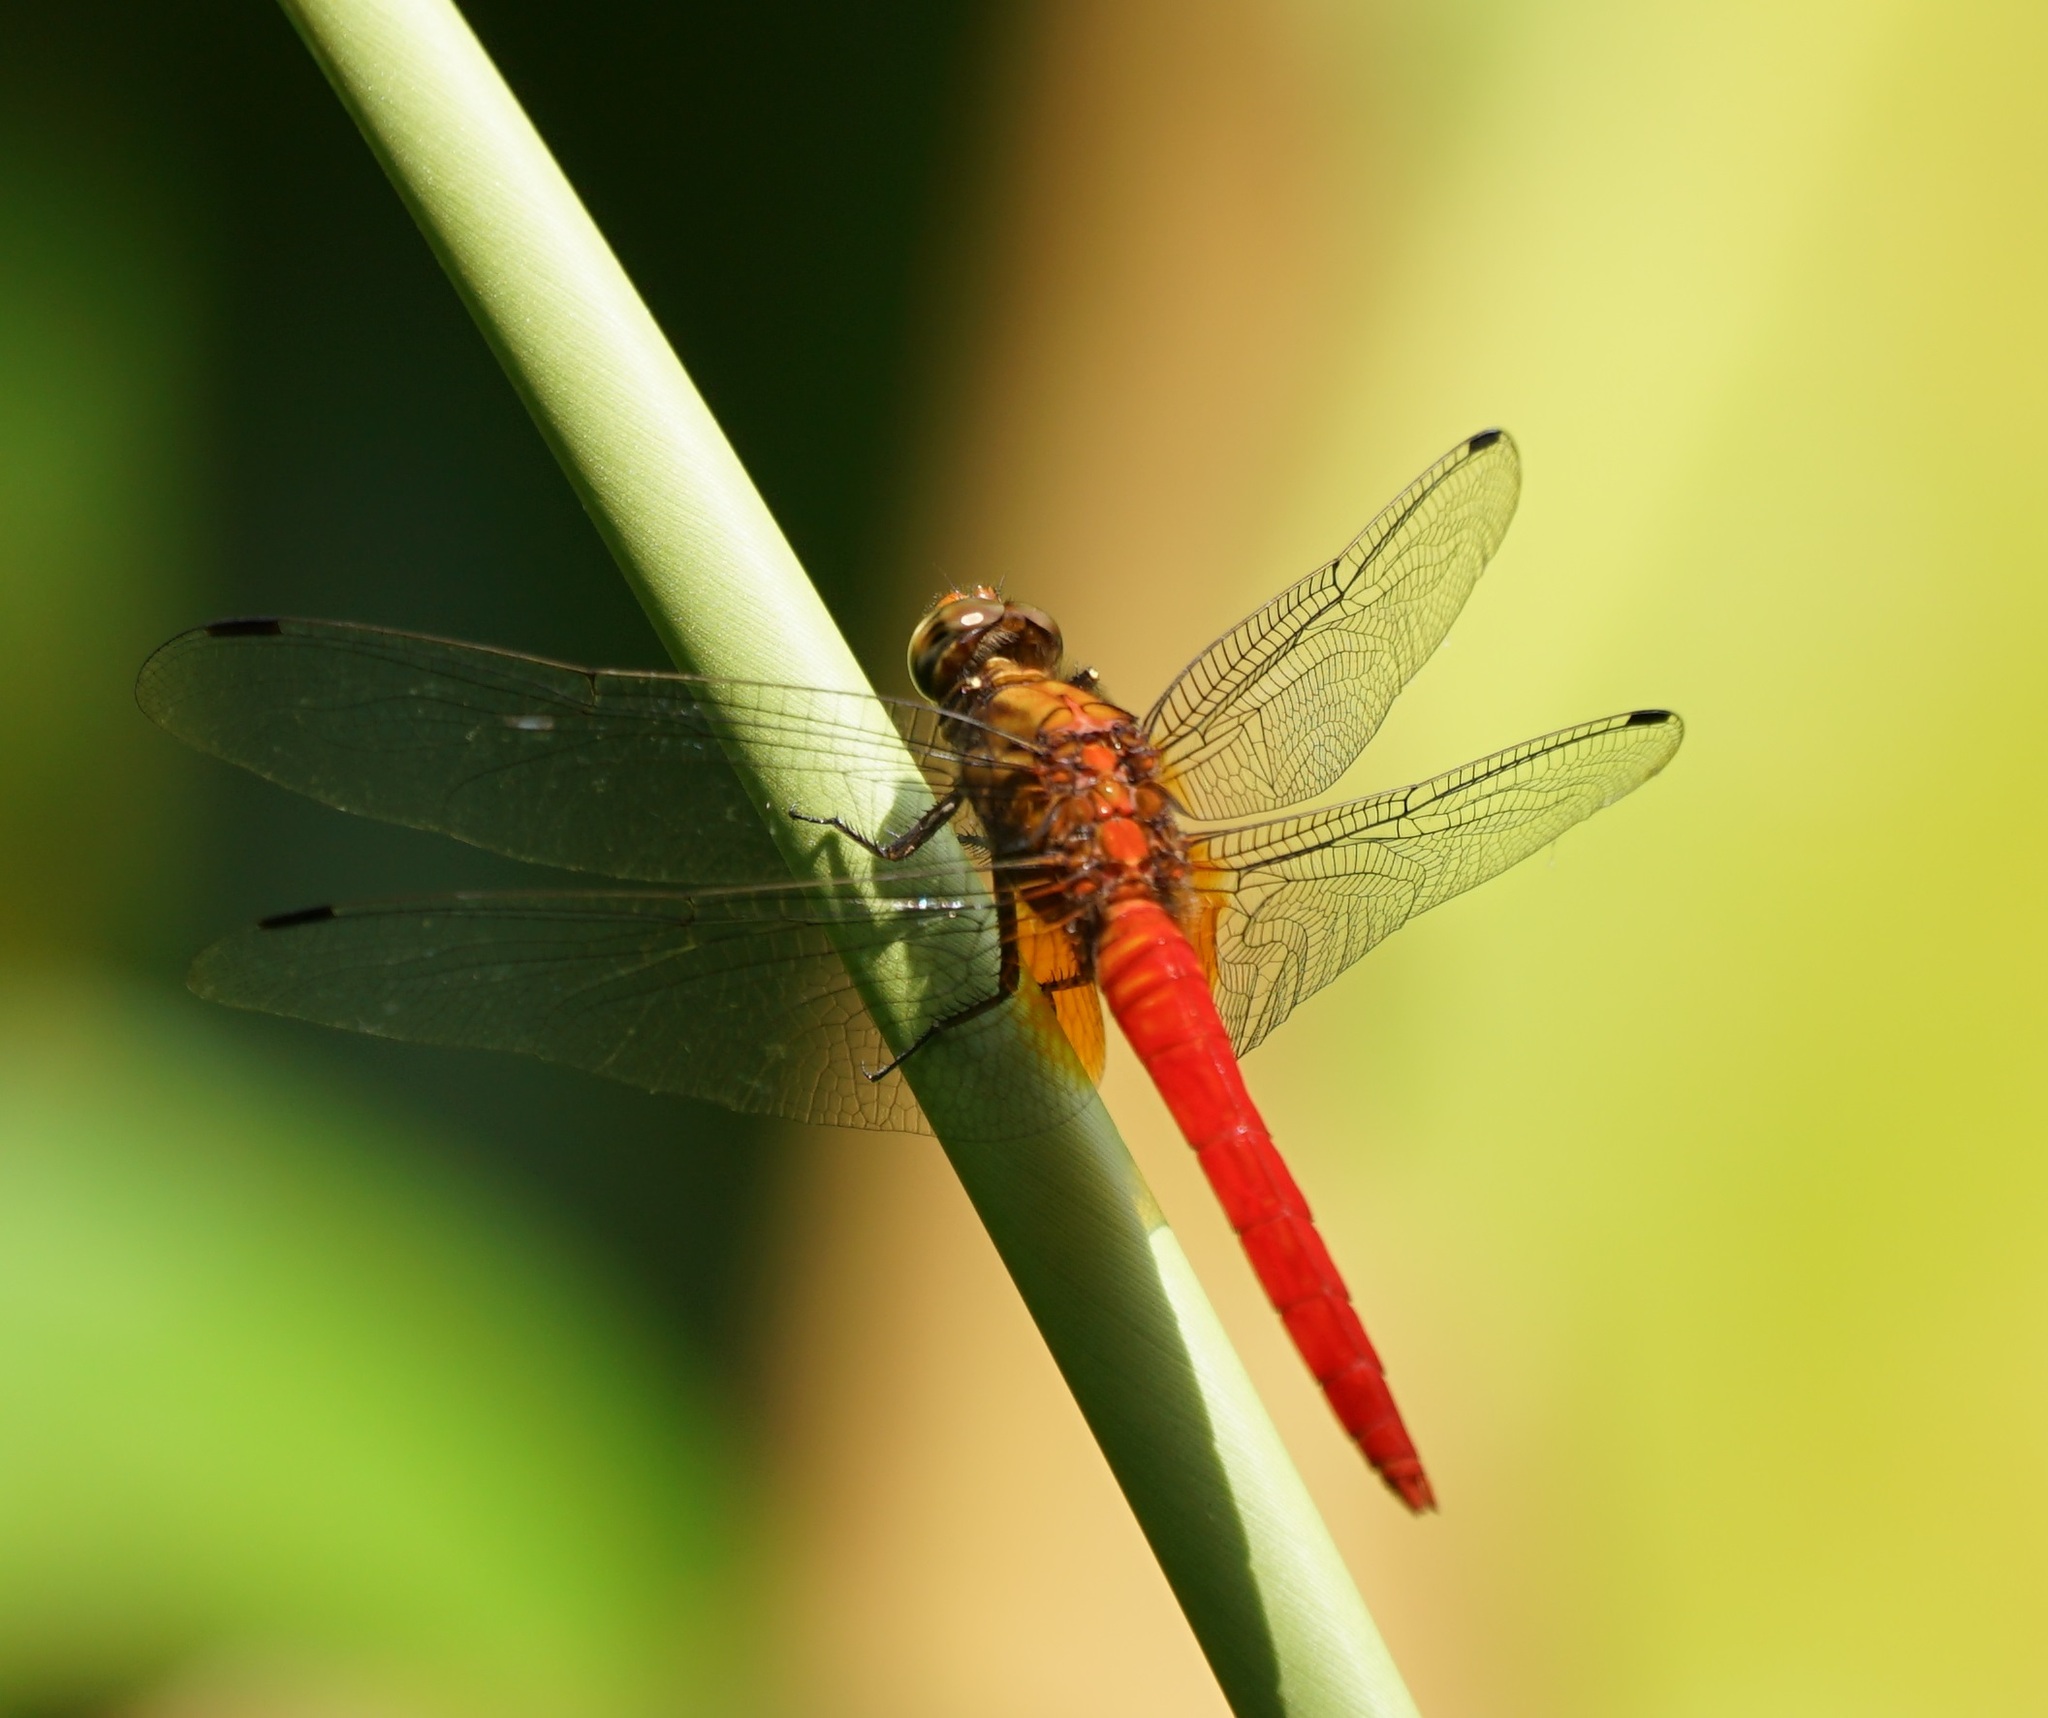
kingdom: Animalia
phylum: Arthropoda
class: Insecta
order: Odonata
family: Libellulidae
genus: Orthetrum
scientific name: Orthetrum testaceum
